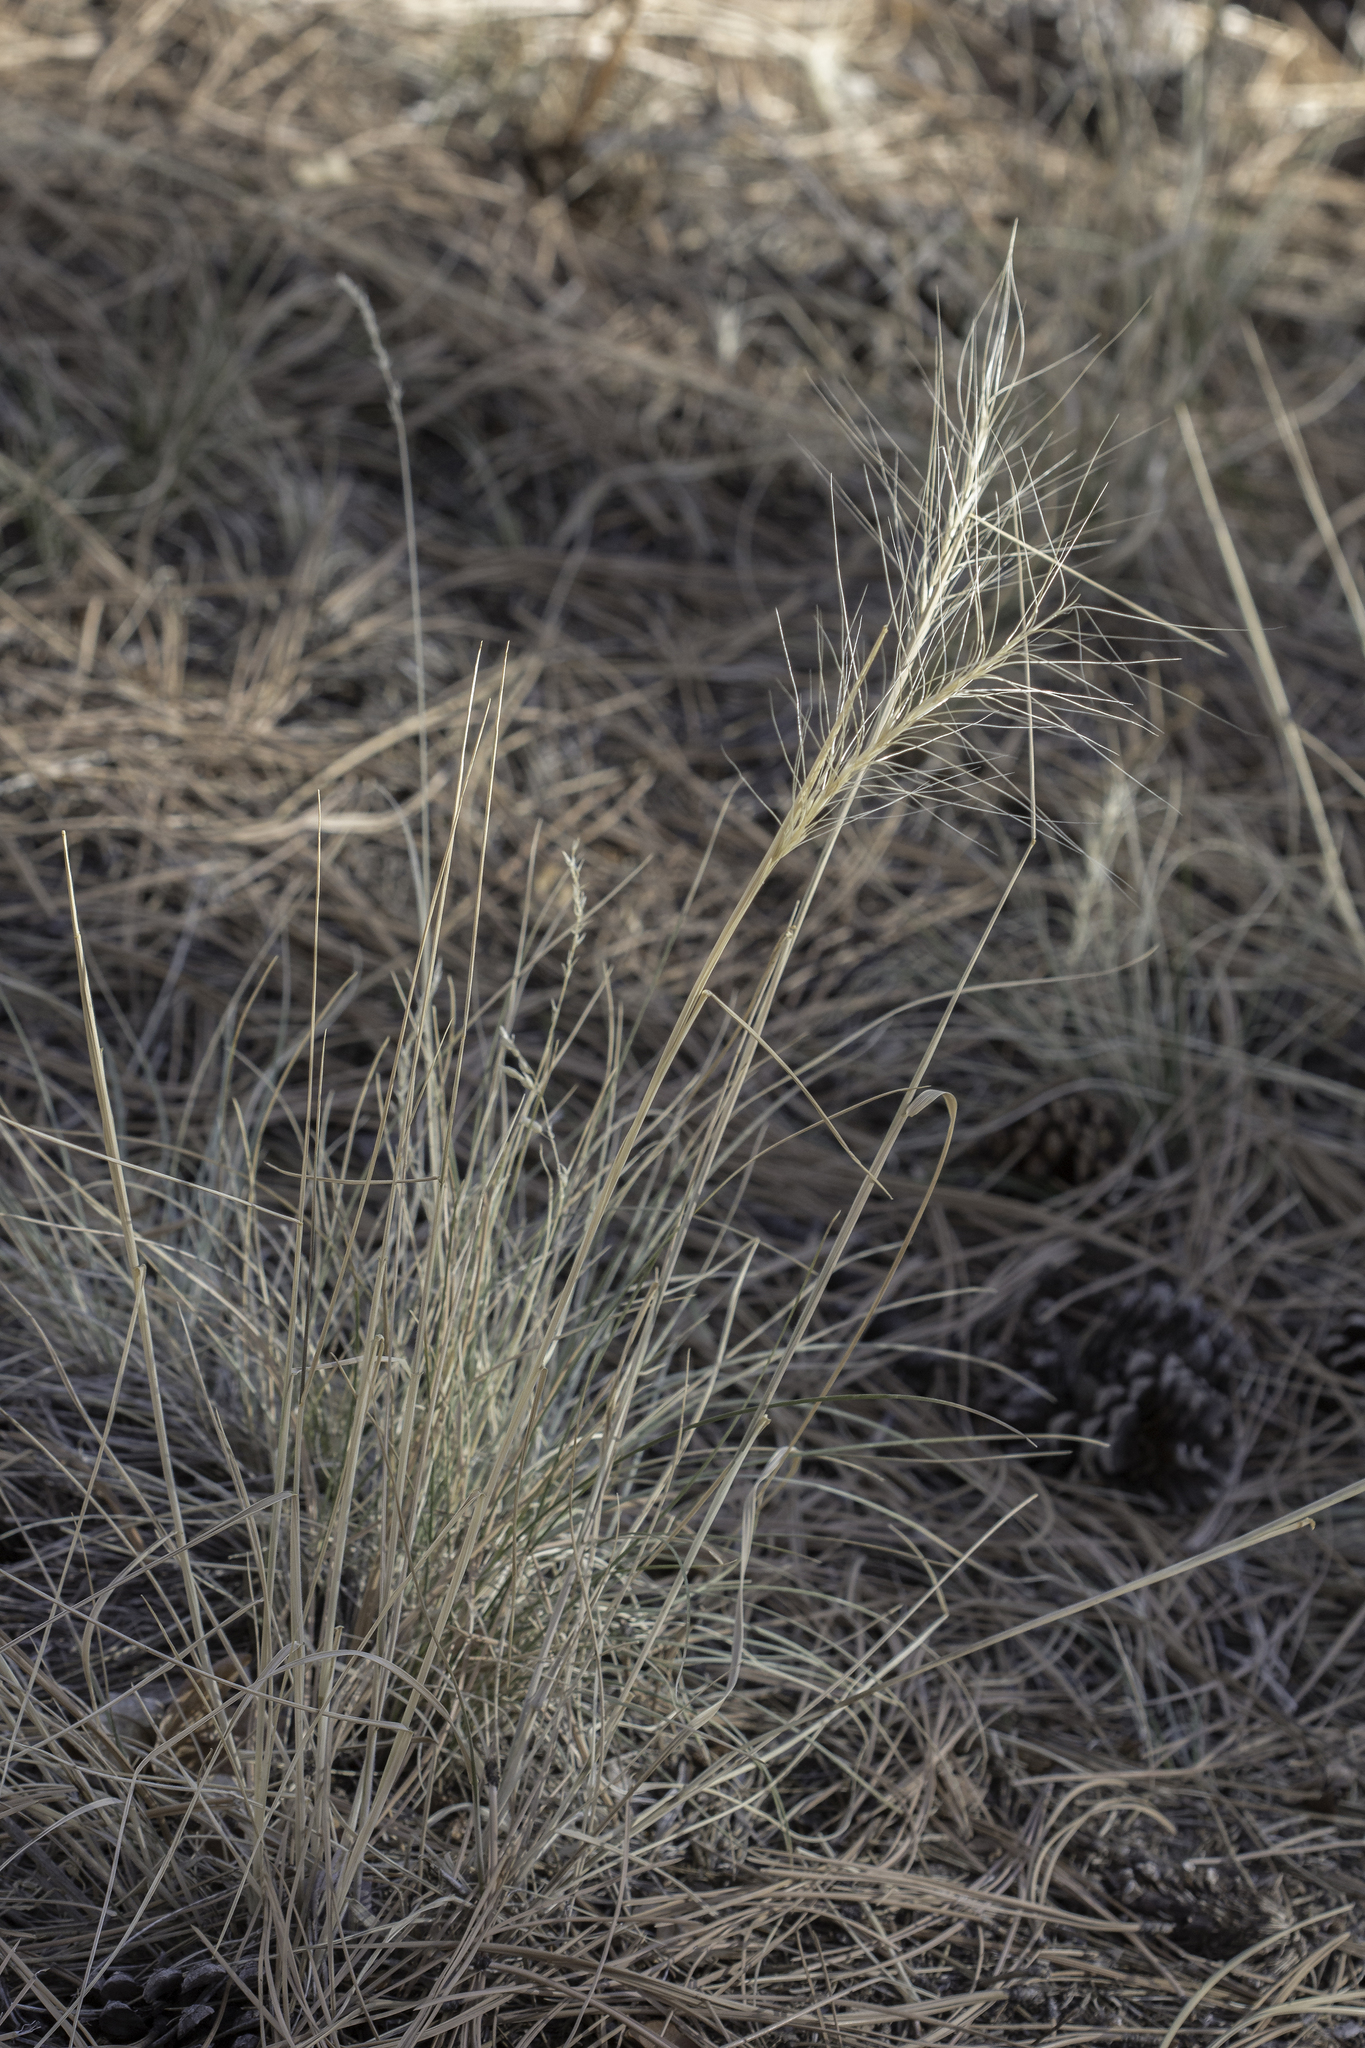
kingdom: Plantae
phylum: Tracheophyta
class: Liliopsida
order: Poales
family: Poaceae
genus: Elymus
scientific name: Elymus elymoides
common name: Bottlebrush squirreltail
